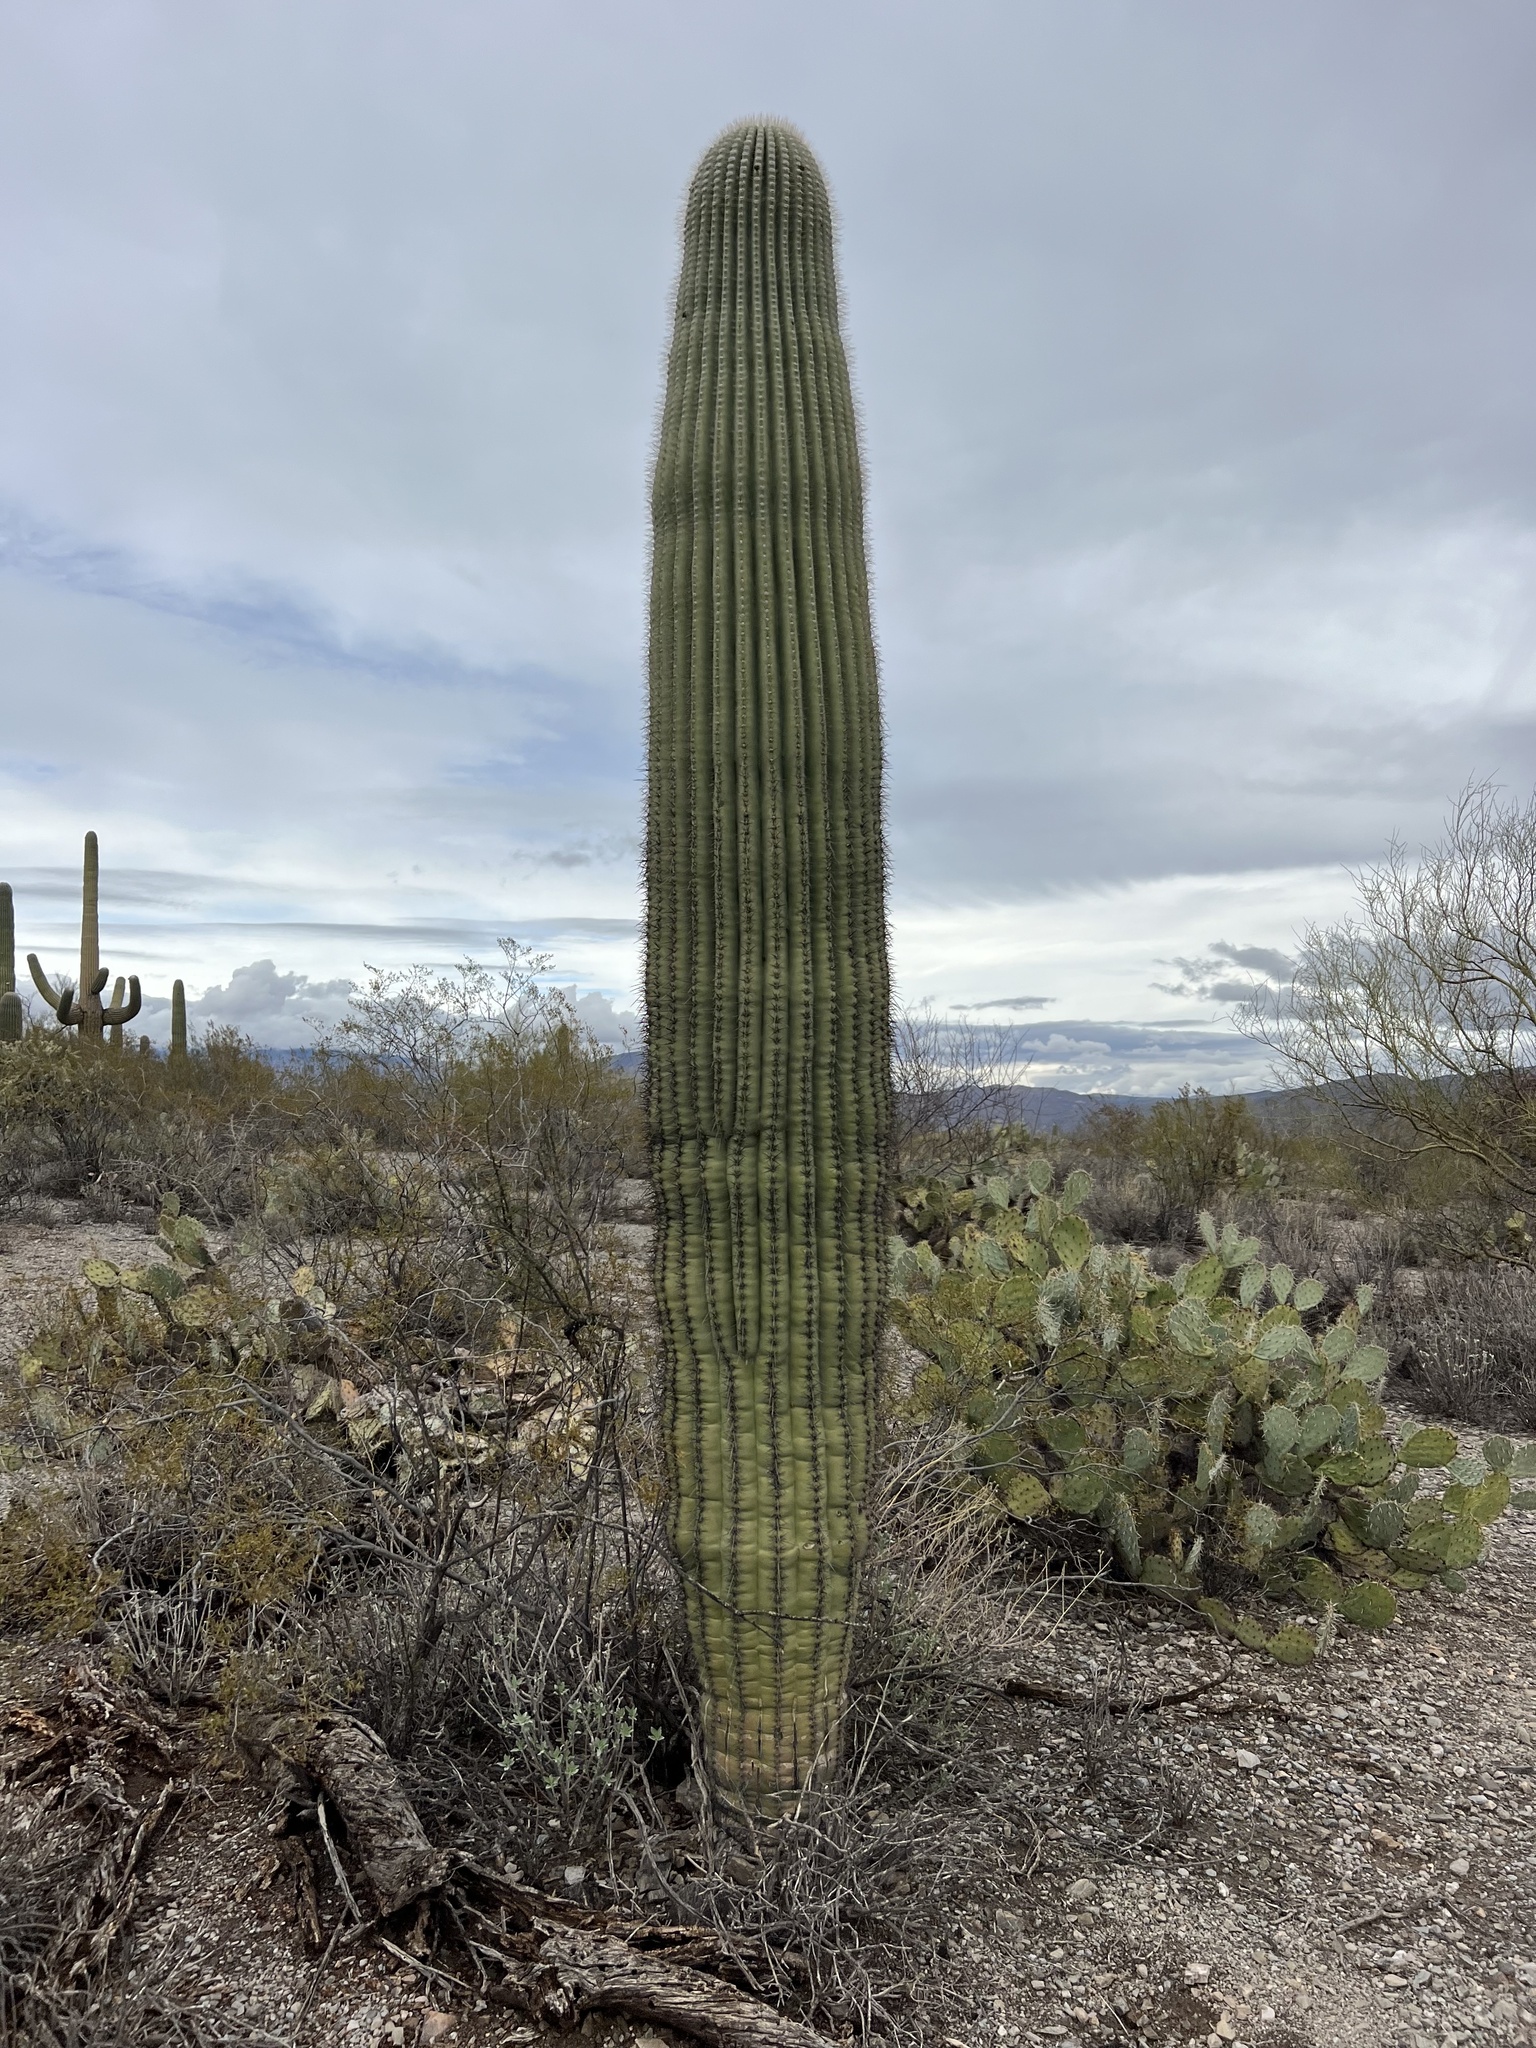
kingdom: Plantae
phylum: Tracheophyta
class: Magnoliopsida
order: Caryophyllales
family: Cactaceae
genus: Carnegiea
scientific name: Carnegiea gigantea
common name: Saguaro
